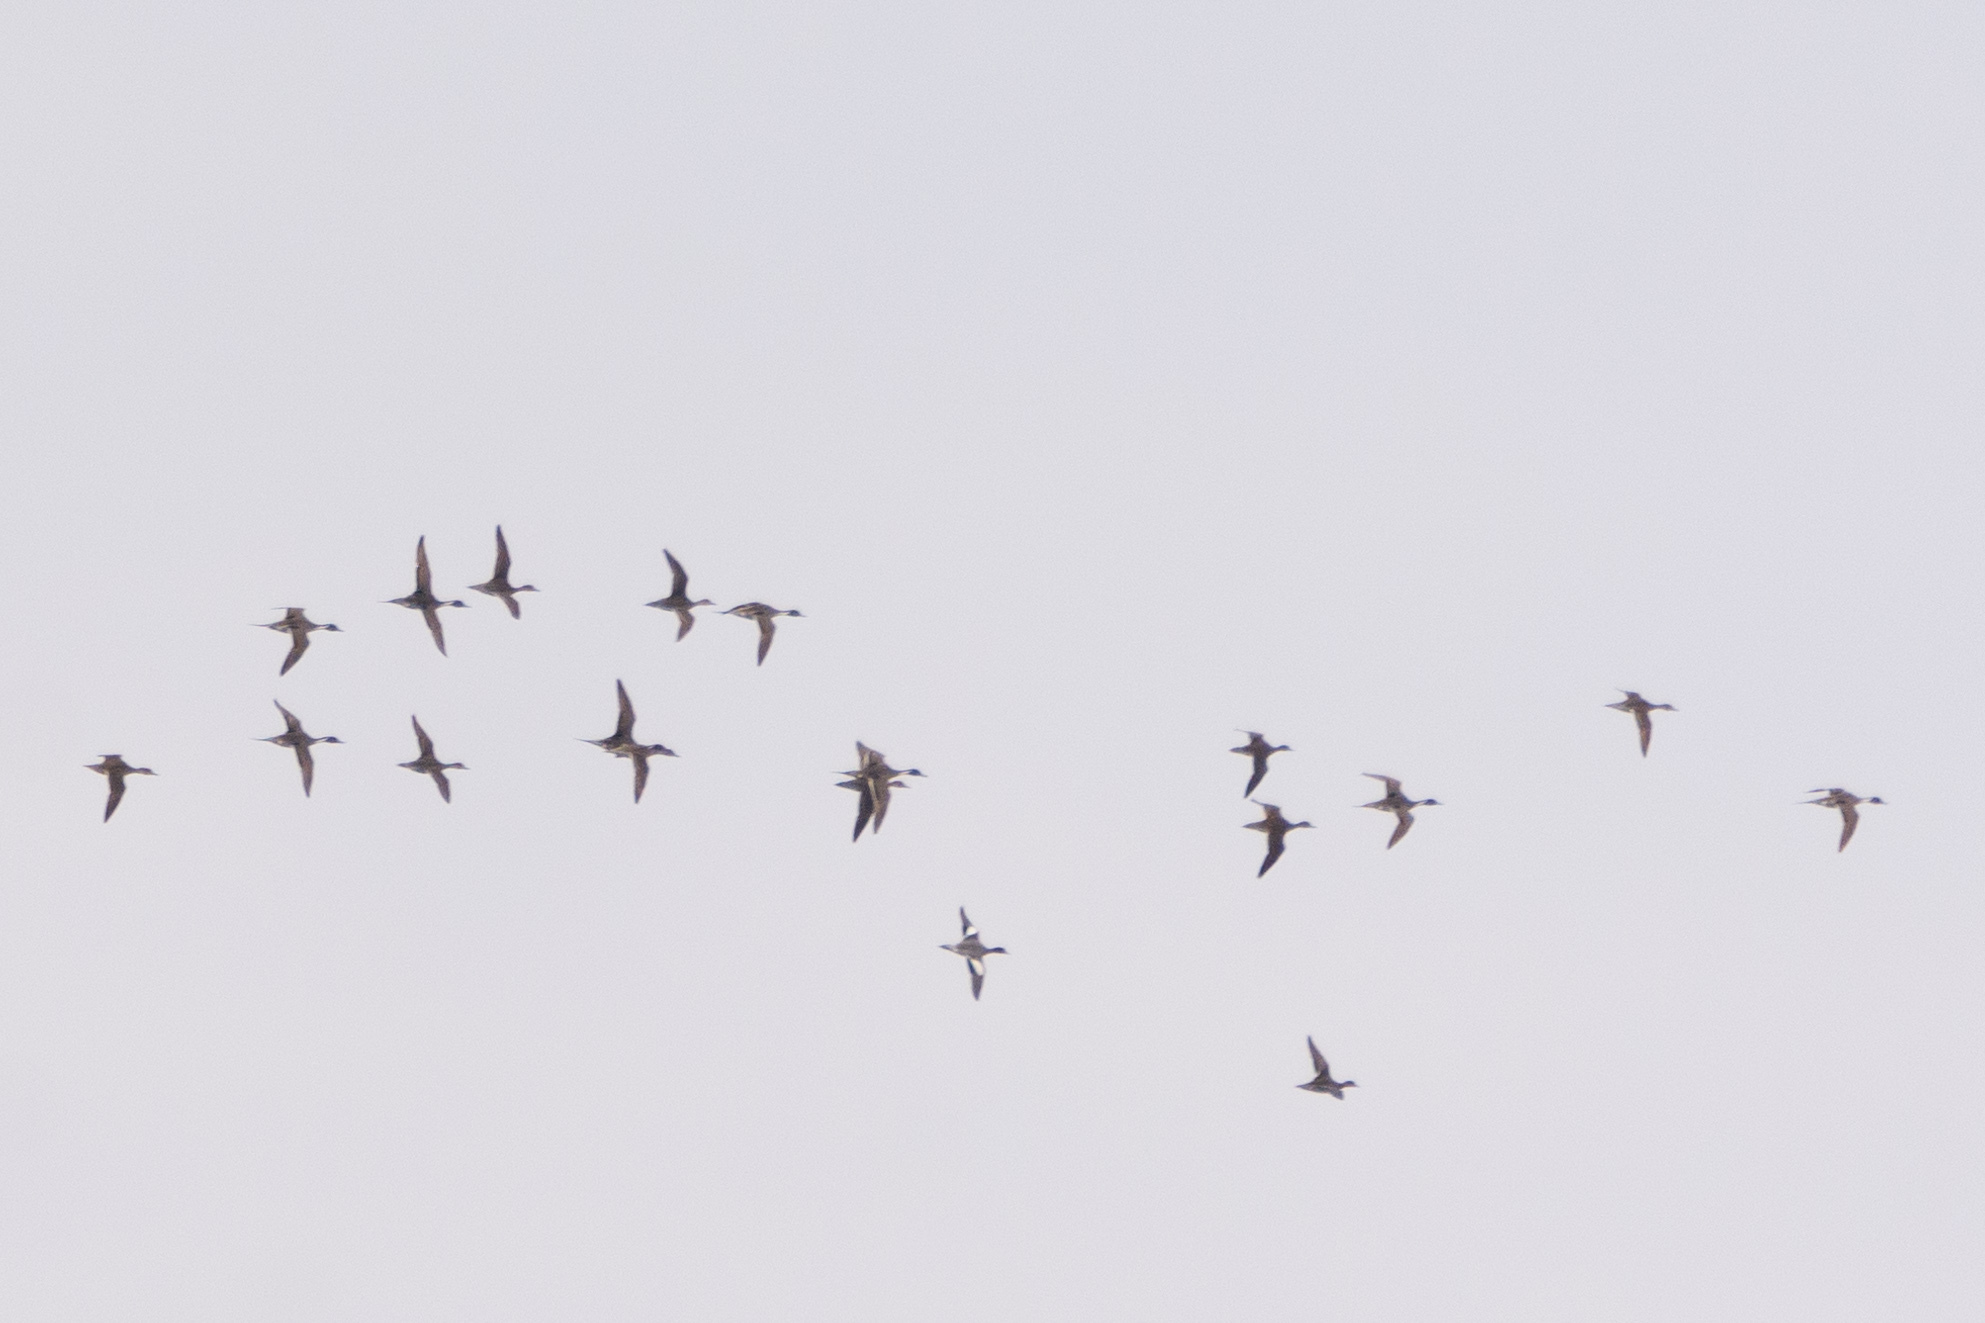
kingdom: Animalia
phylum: Chordata
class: Aves
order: Anseriformes
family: Anatidae
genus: Anas
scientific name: Anas acuta
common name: Northern pintail
